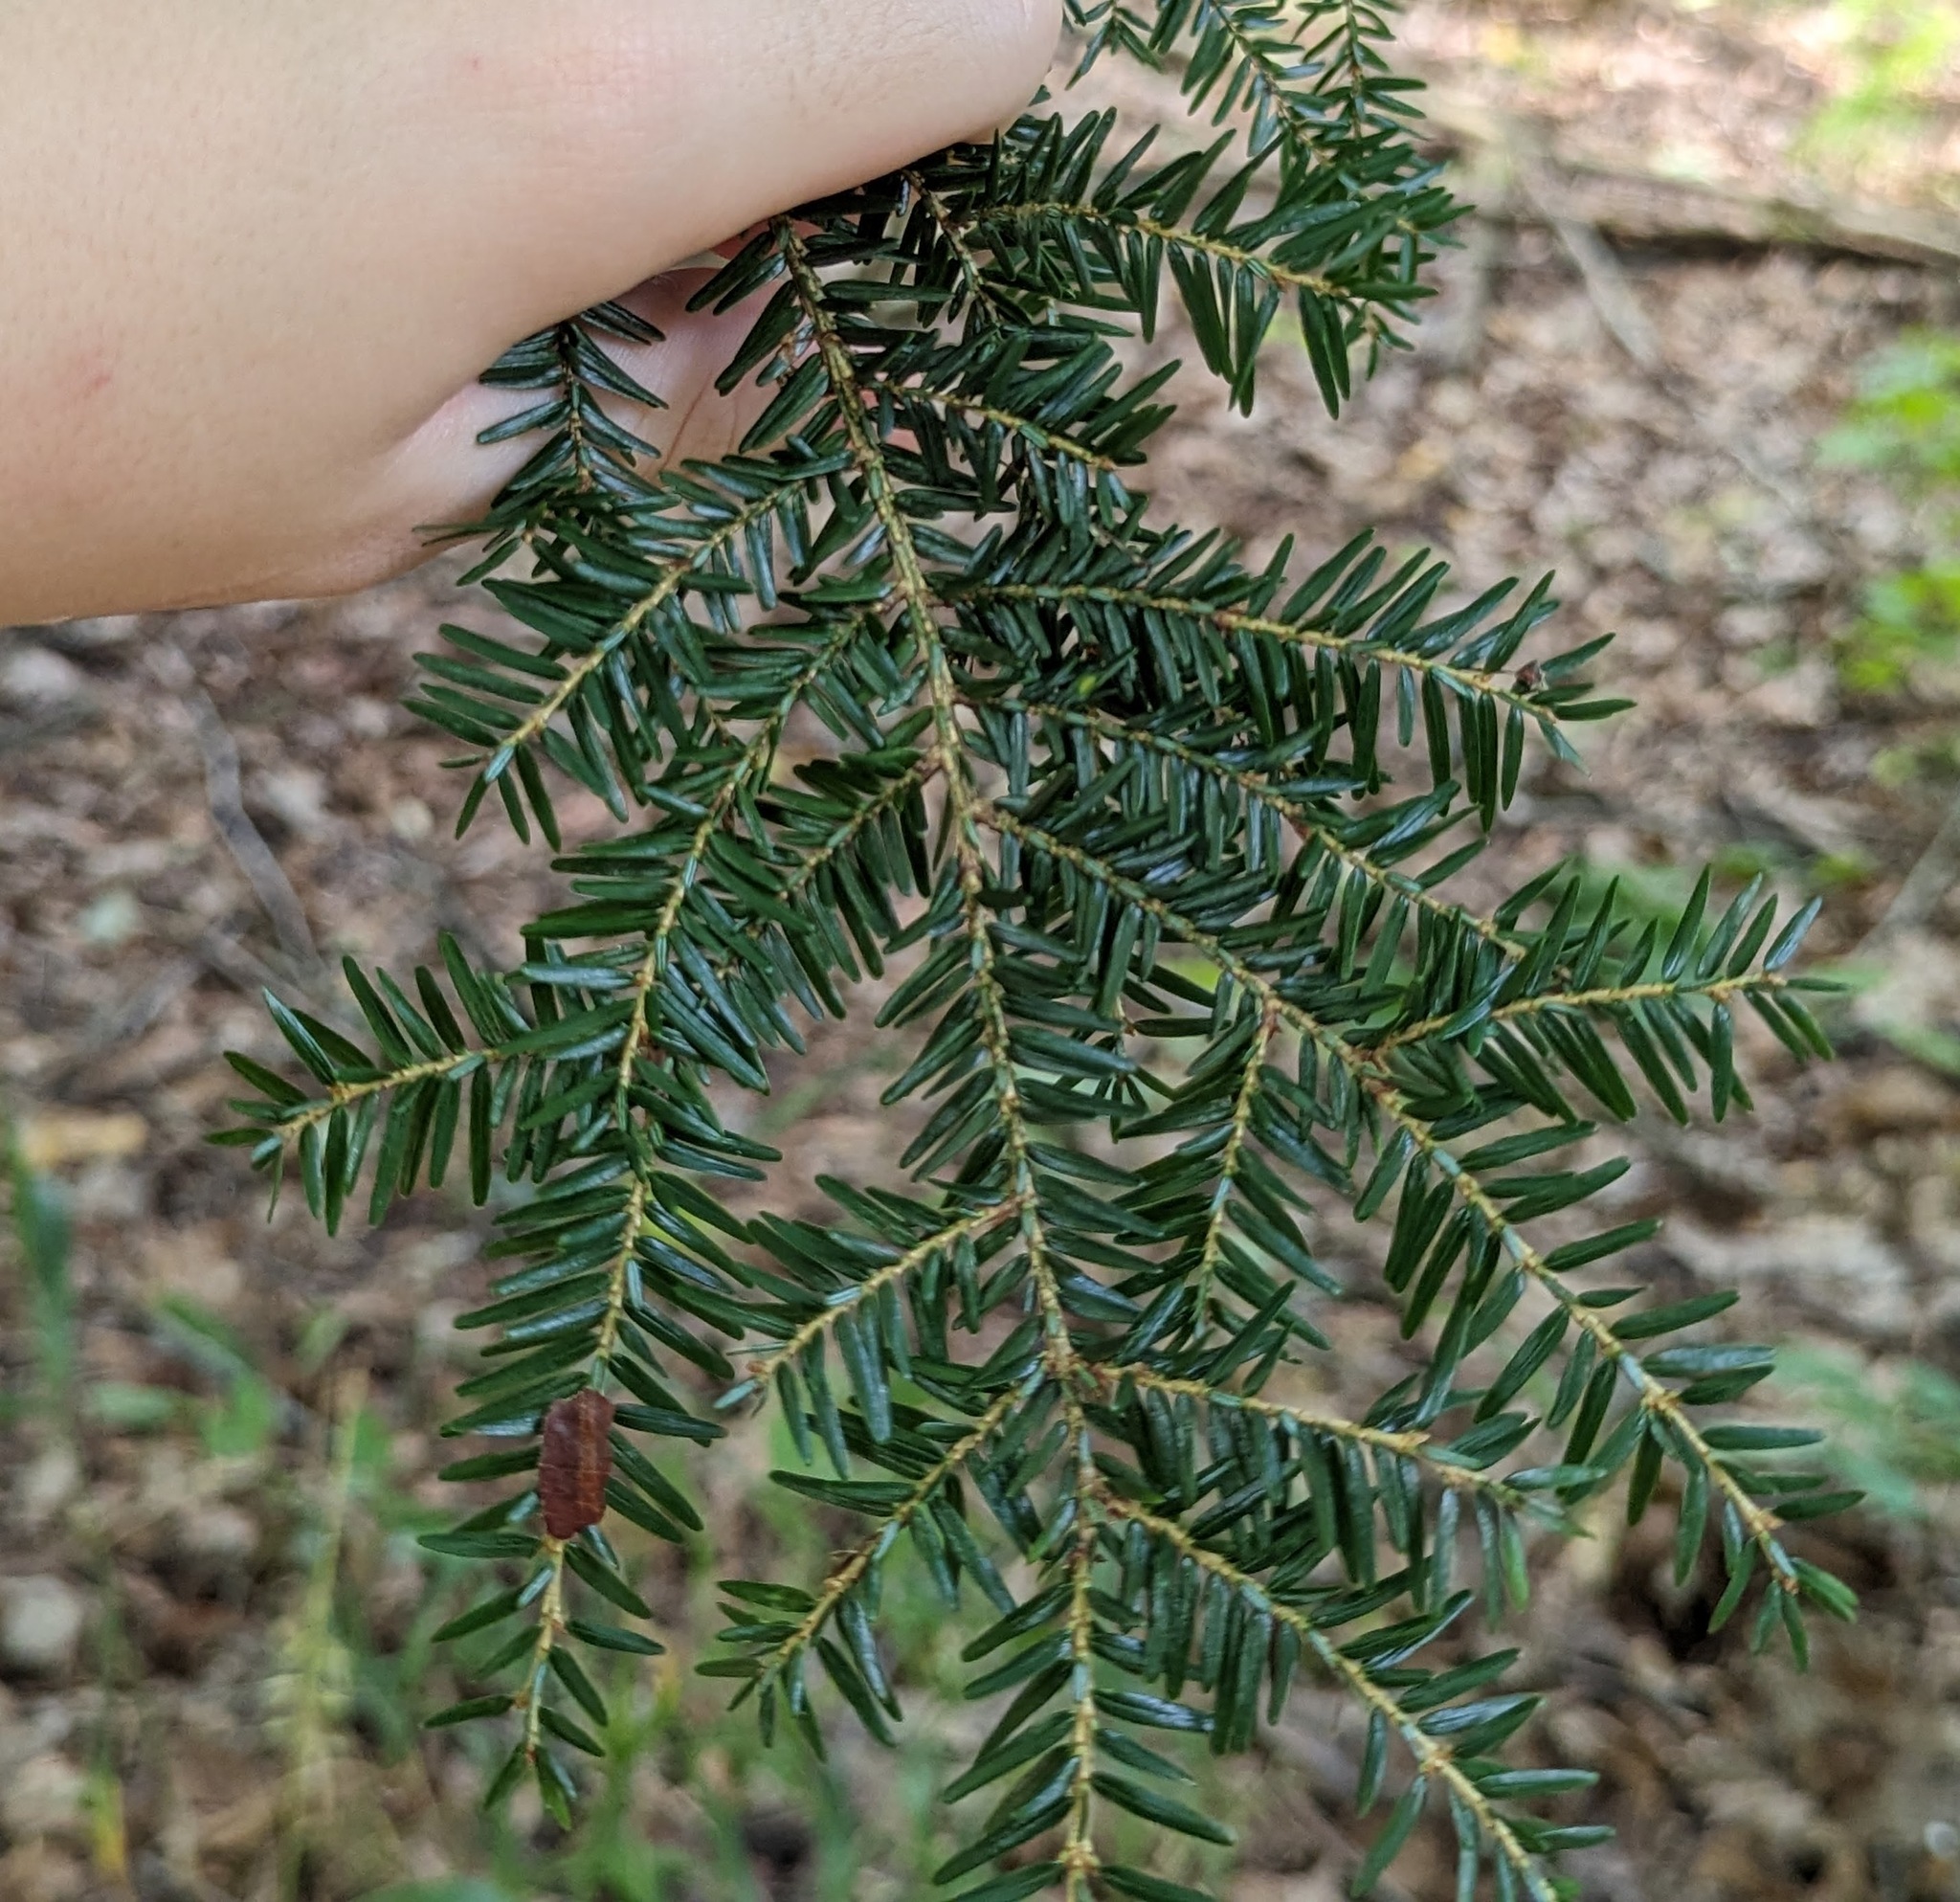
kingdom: Plantae
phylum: Tracheophyta
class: Pinopsida
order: Pinales
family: Pinaceae
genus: Tsuga
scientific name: Tsuga canadensis
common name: Eastern hemlock
